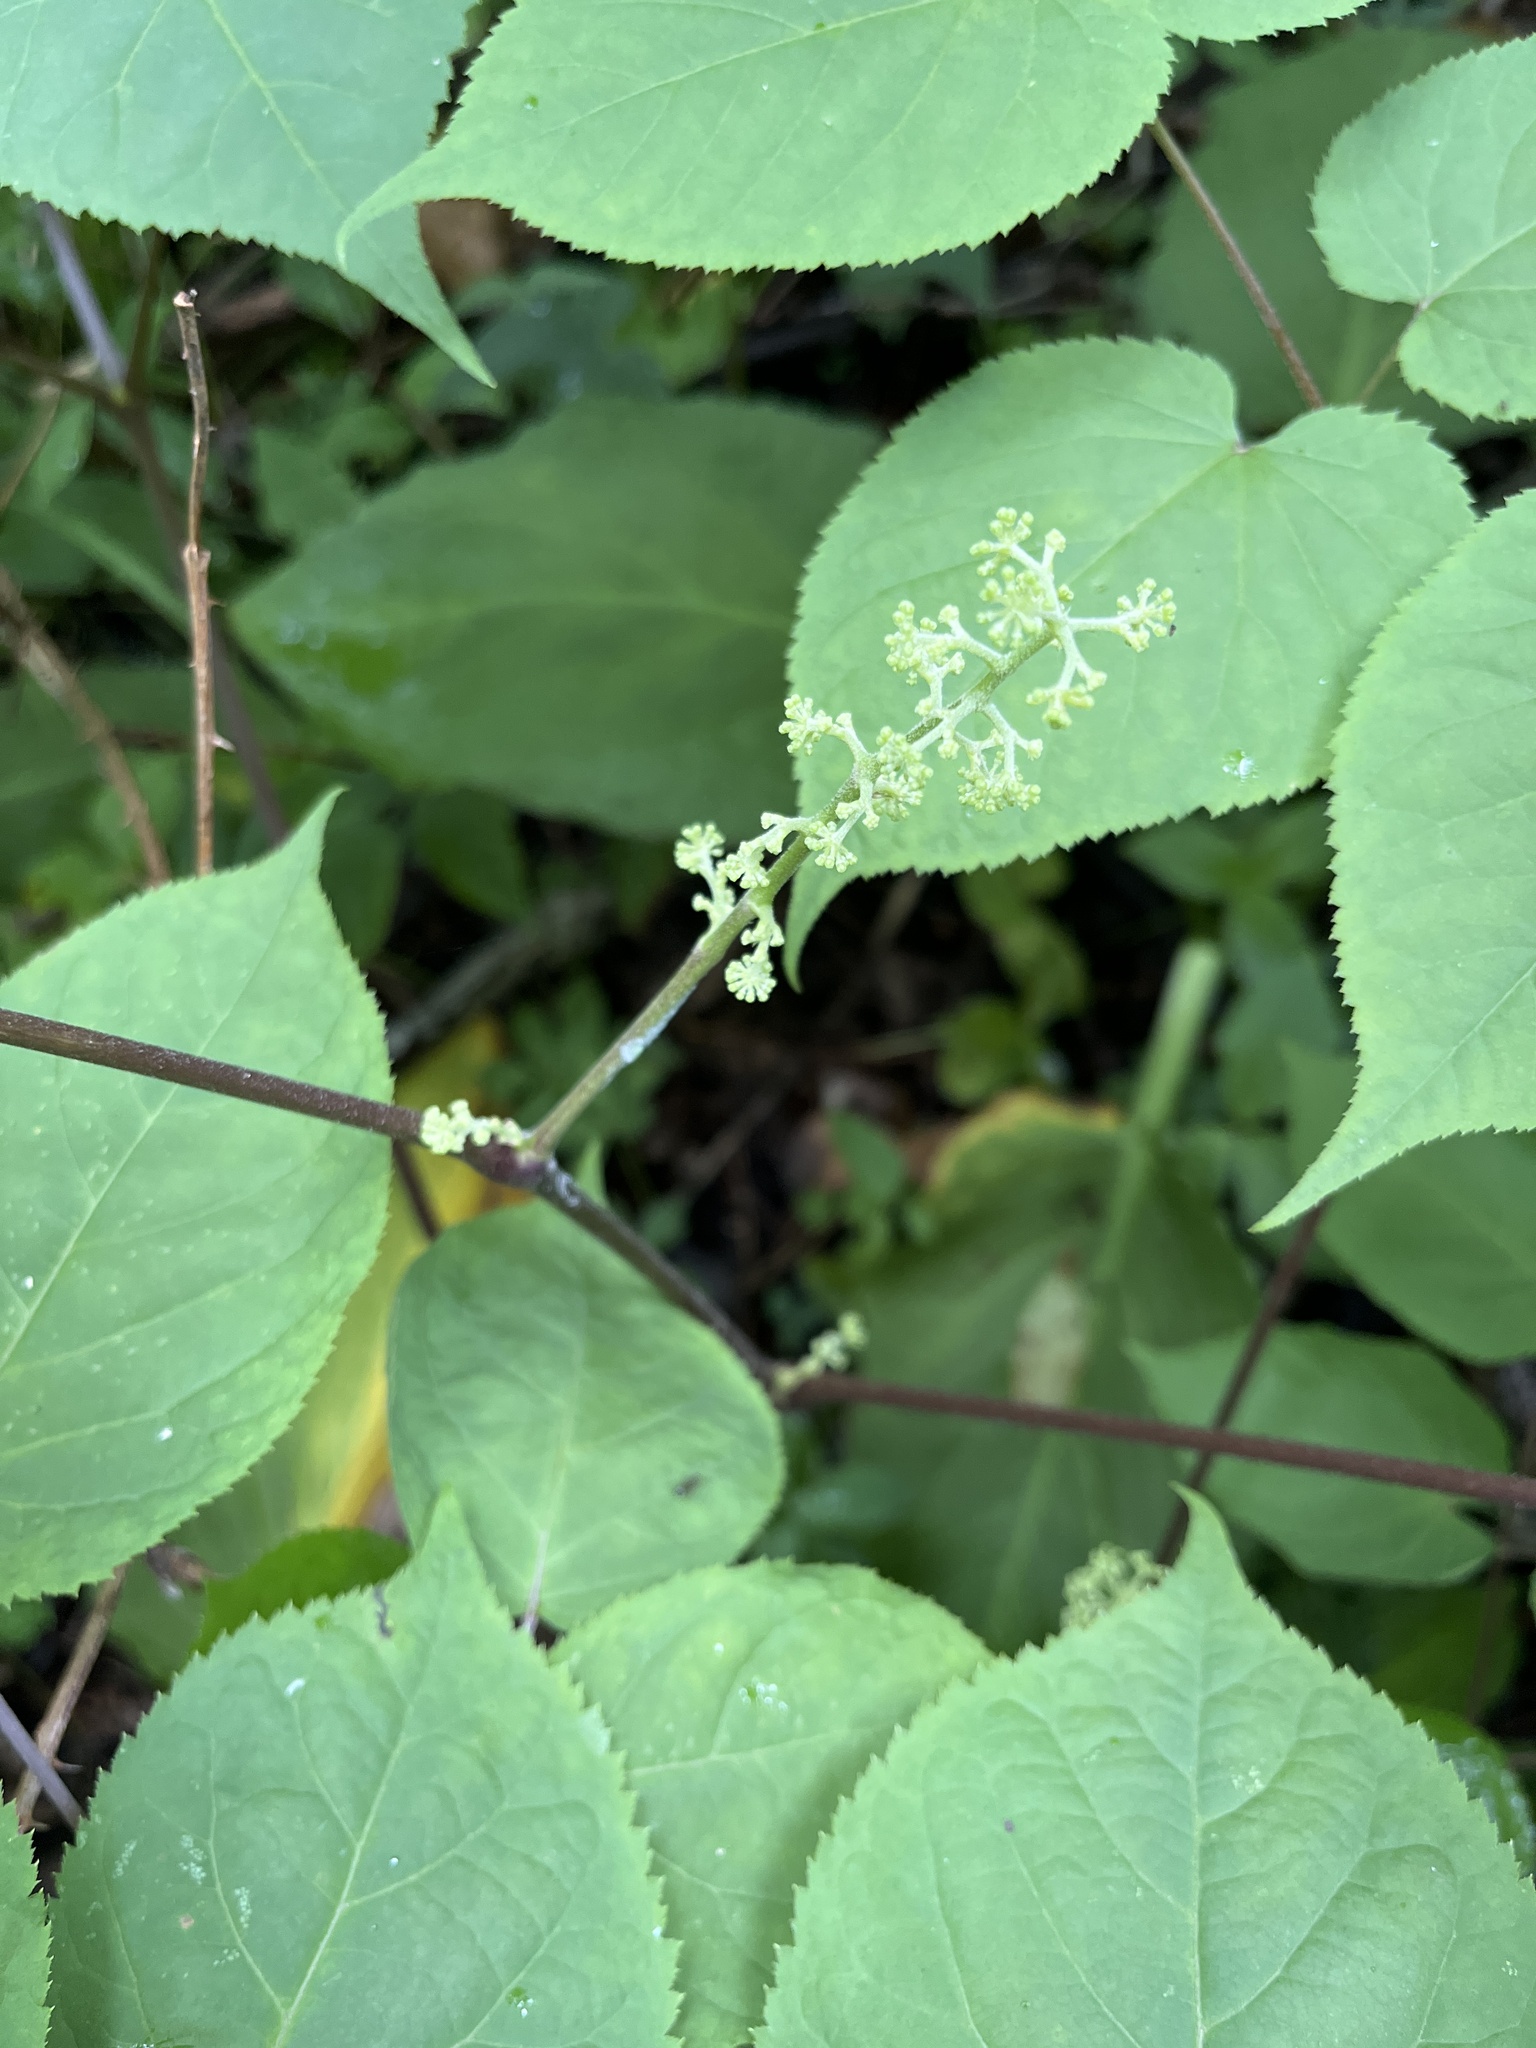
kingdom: Plantae
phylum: Tracheophyta
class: Magnoliopsida
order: Apiales
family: Araliaceae
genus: Aralia
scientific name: Aralia racemosa
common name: American-spikenard
